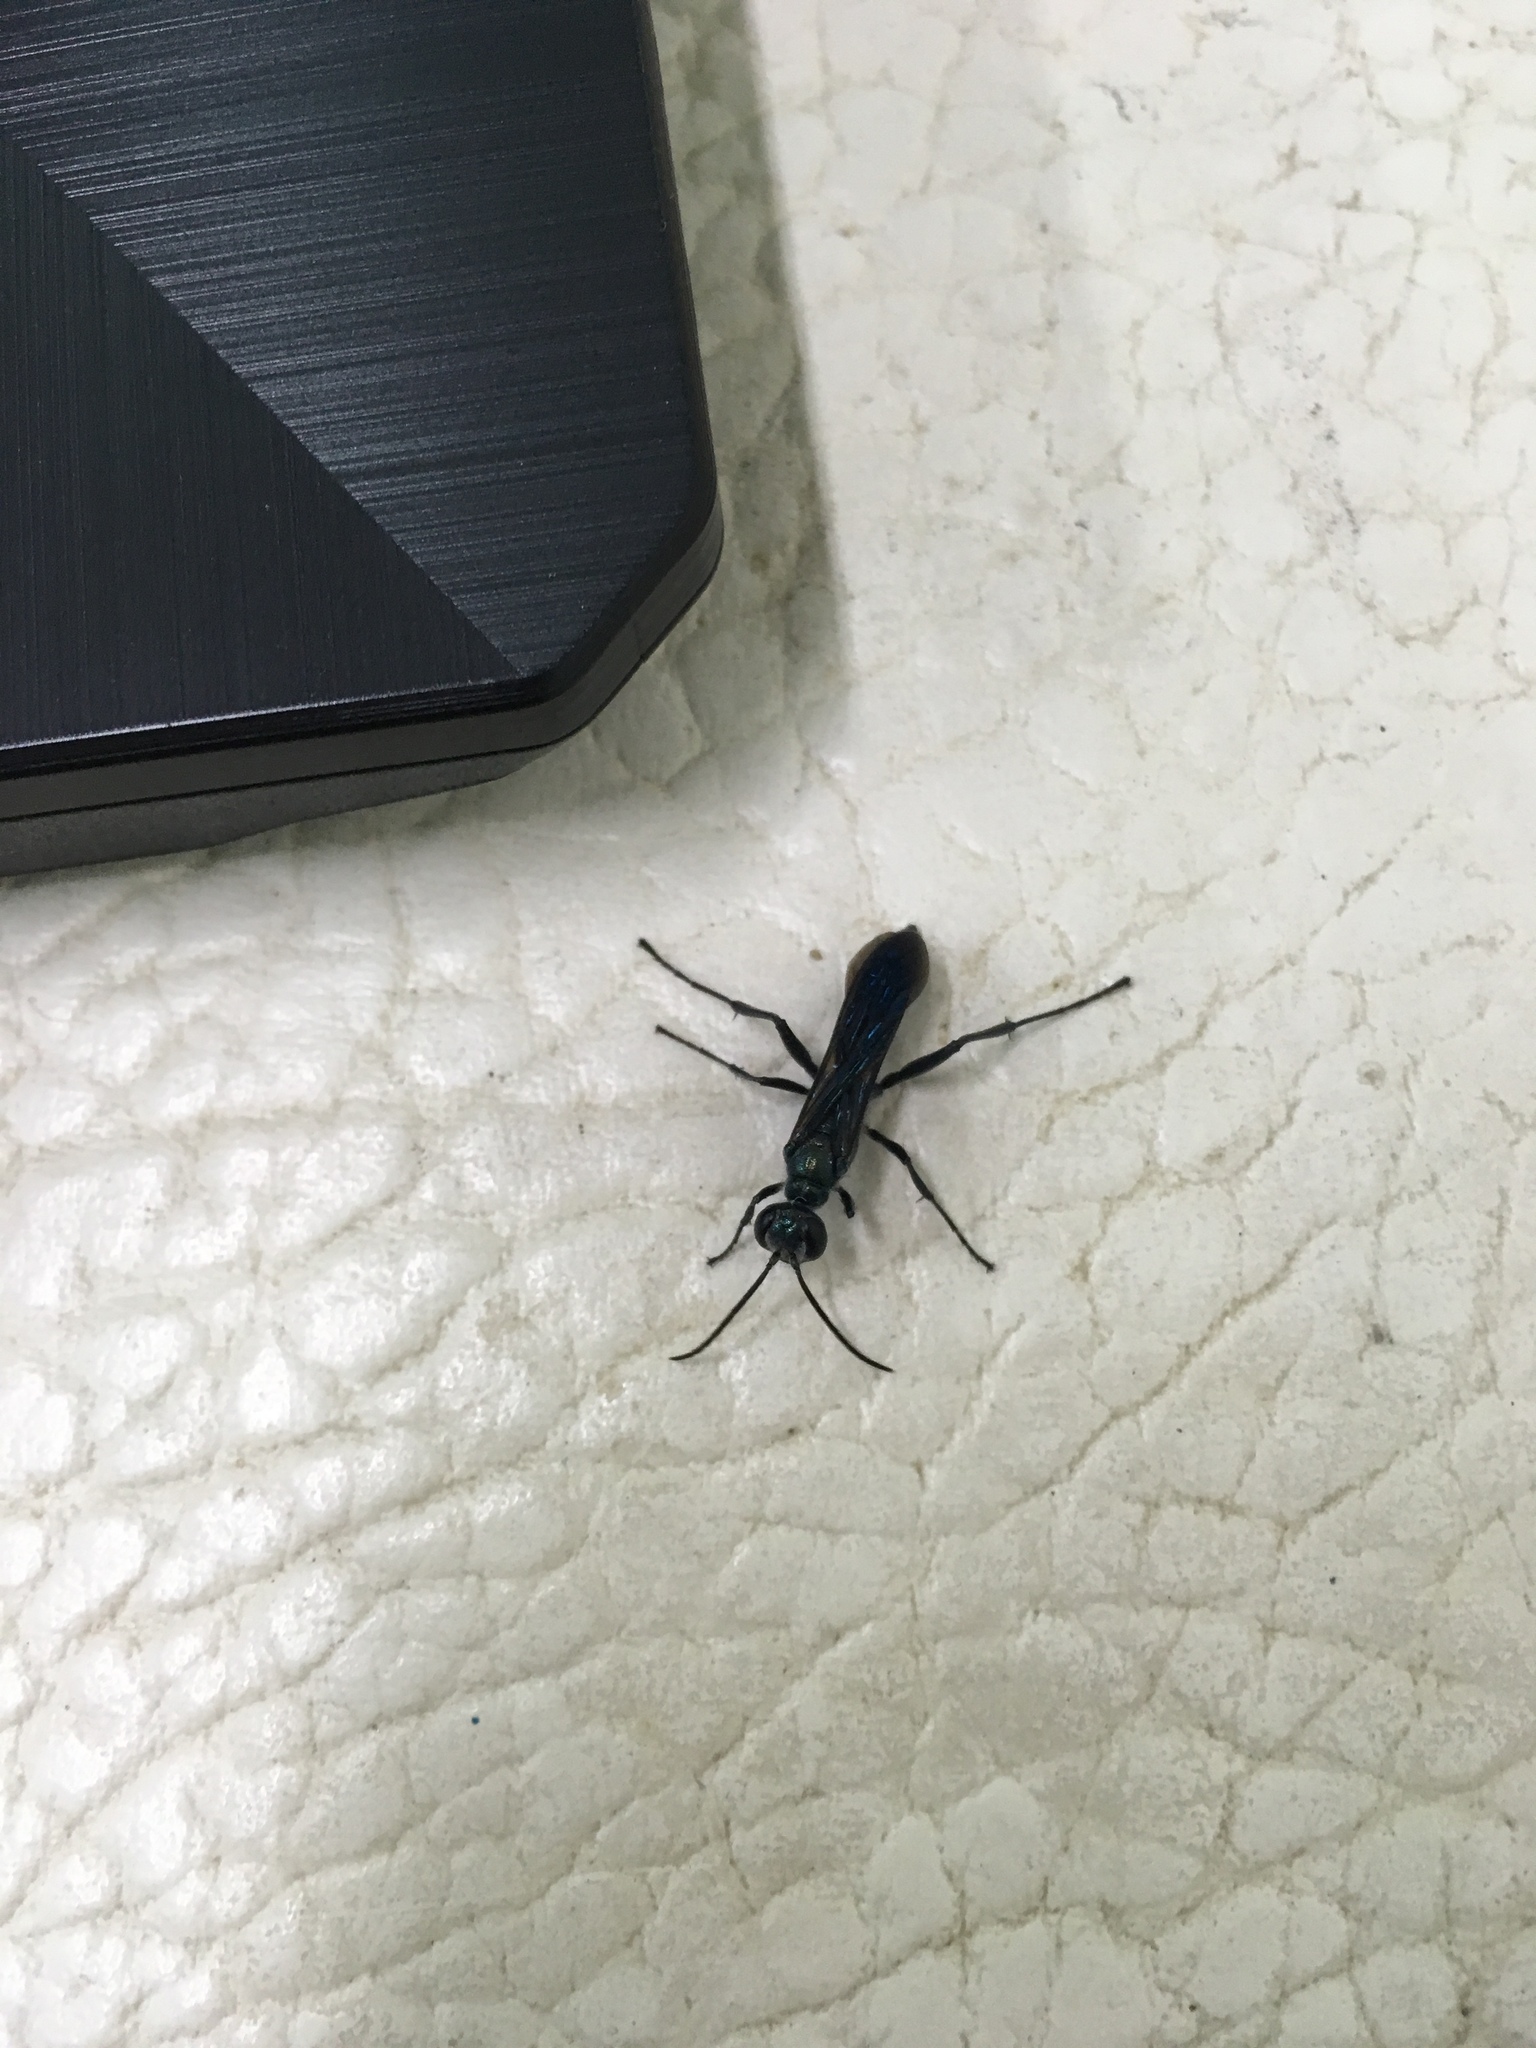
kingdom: Animalia
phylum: Arthropoda
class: Insecta
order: Hymenoptera
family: Sphecidae
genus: Chalybion
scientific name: Chalybion japonicum
